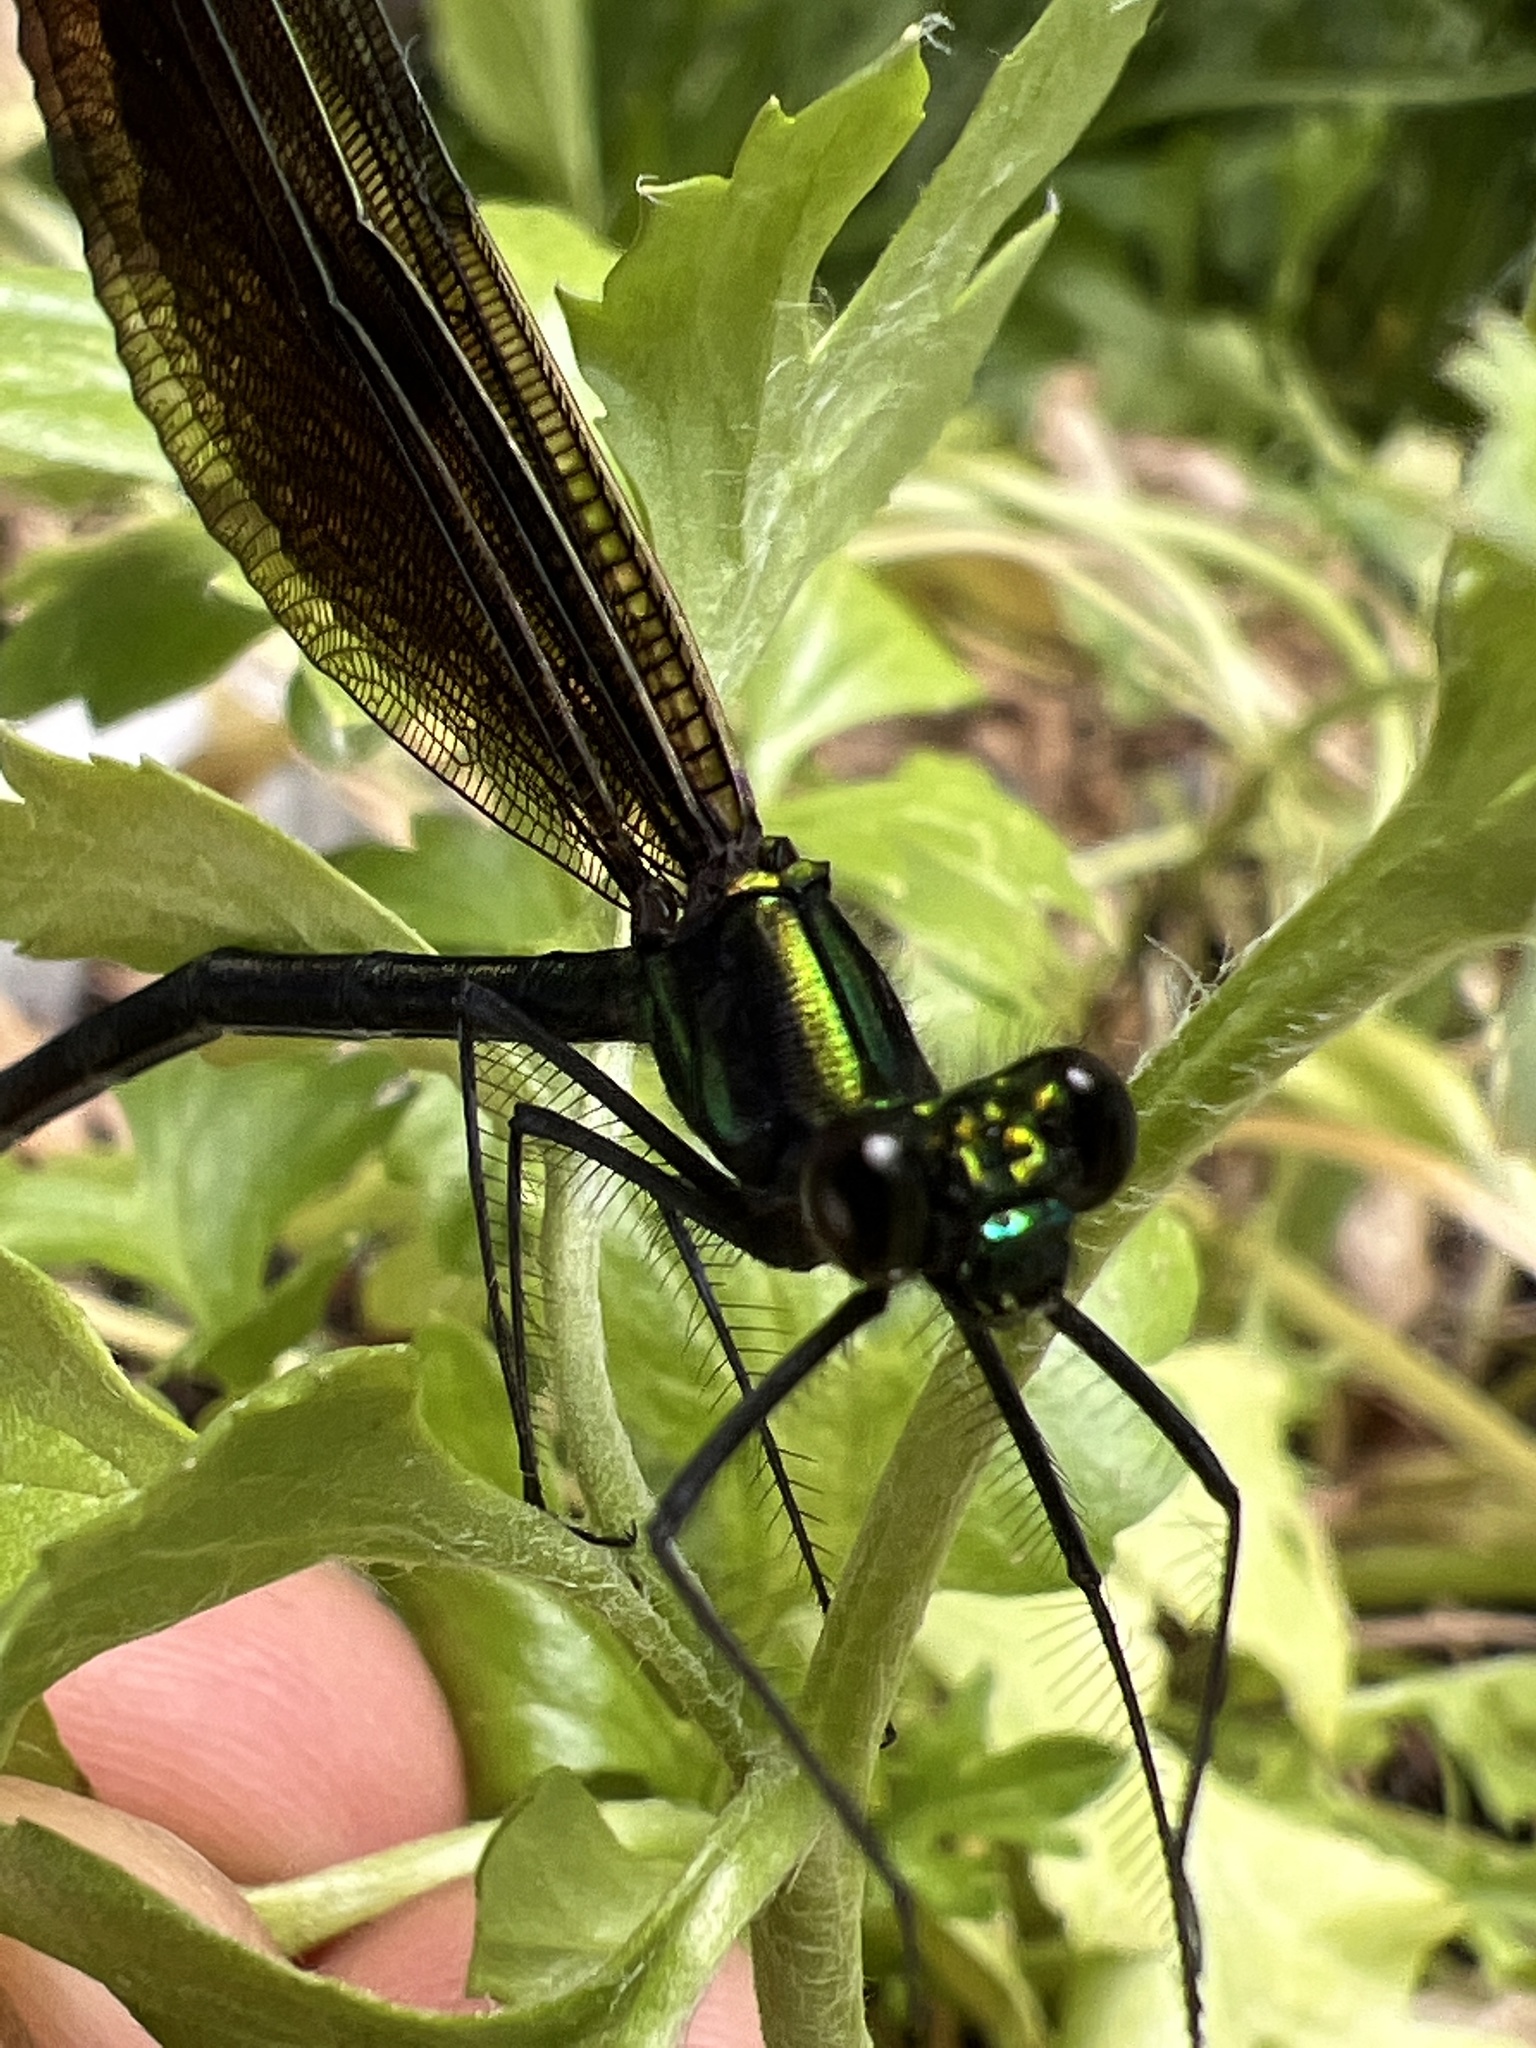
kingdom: Animalia
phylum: Arthropoda
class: Insecta
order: Odonata
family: Calopterygidae
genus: Calopteryx
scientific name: Calopteryx maculata
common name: Ebony jewelwing
